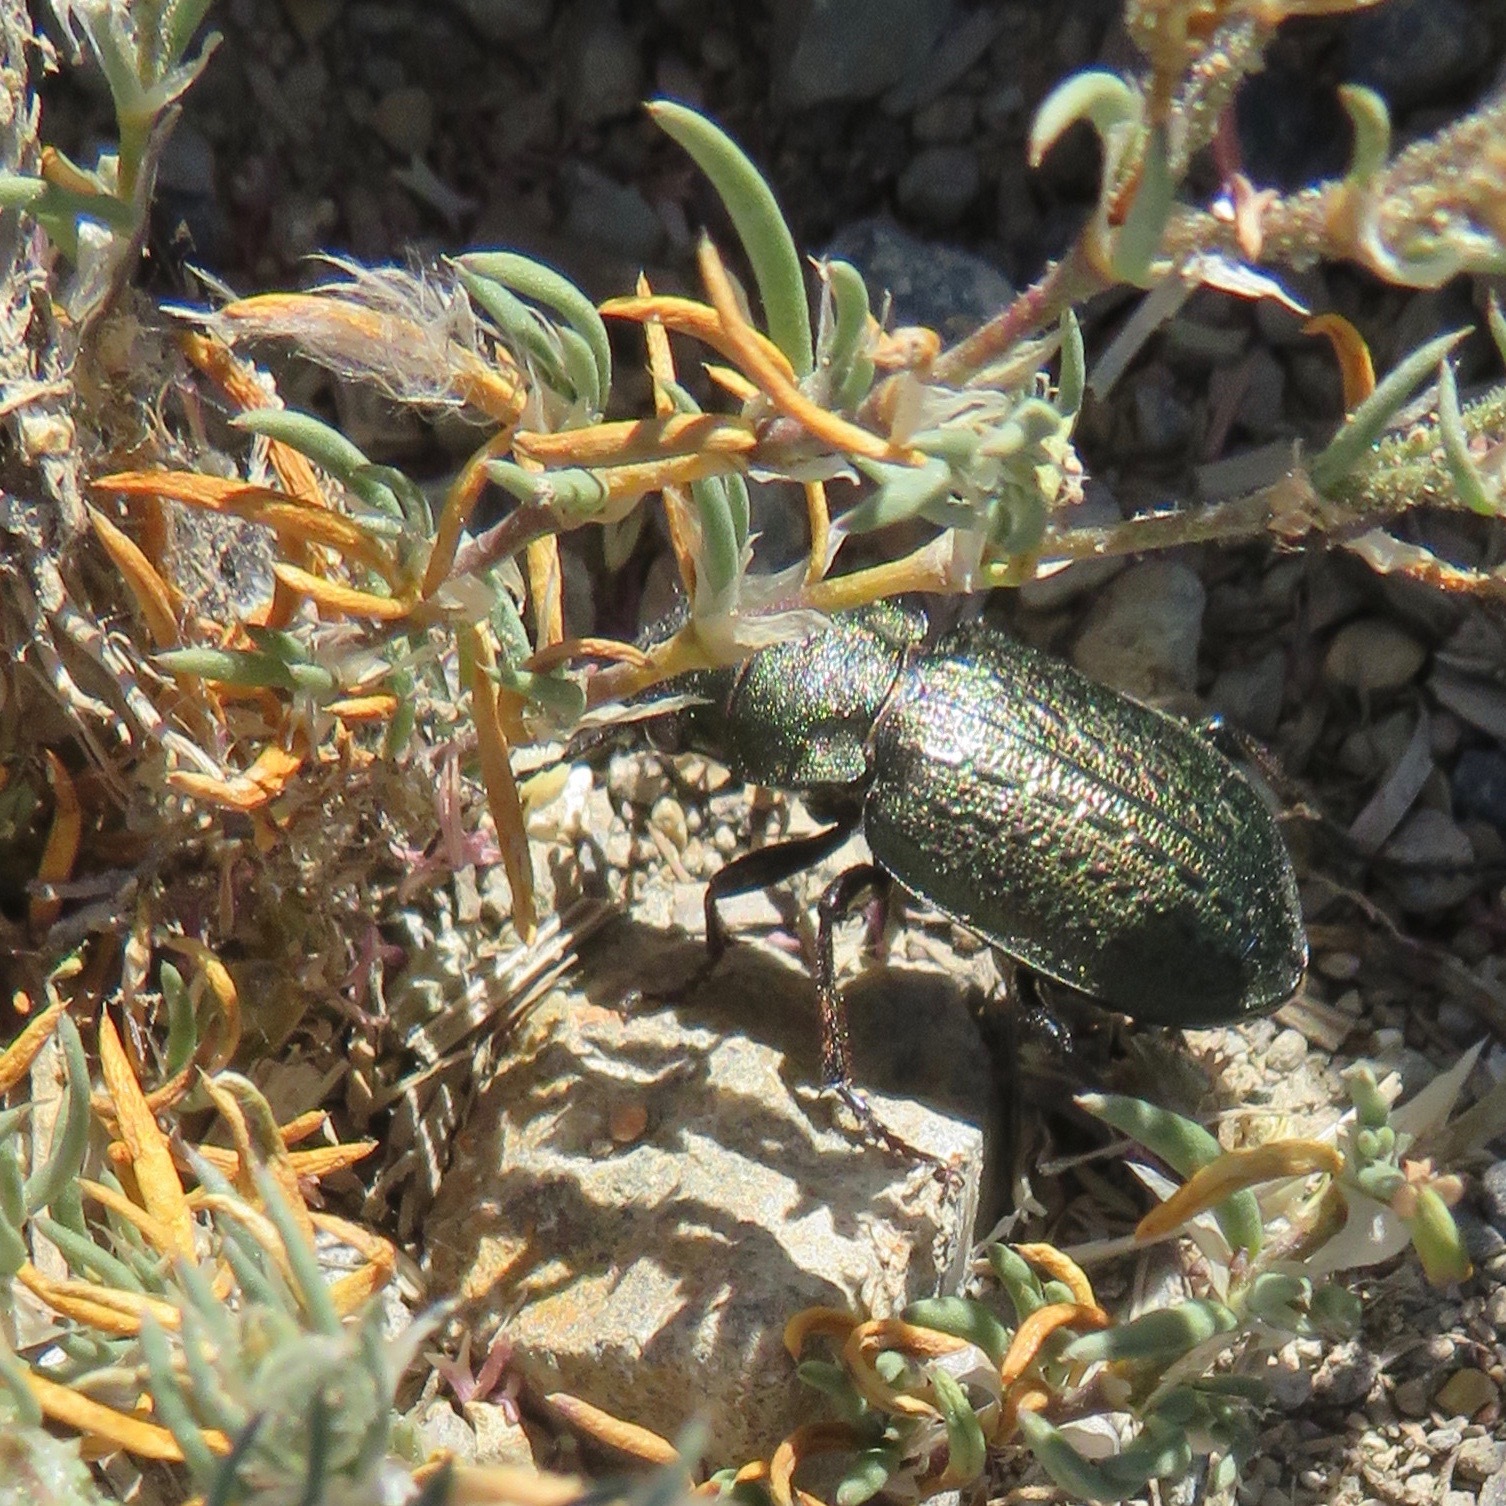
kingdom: Animalia
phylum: Arthropoda
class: Insecta
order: Coleoptera
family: Carabidae
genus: Calosoma
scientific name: Calosoma cancellatum
